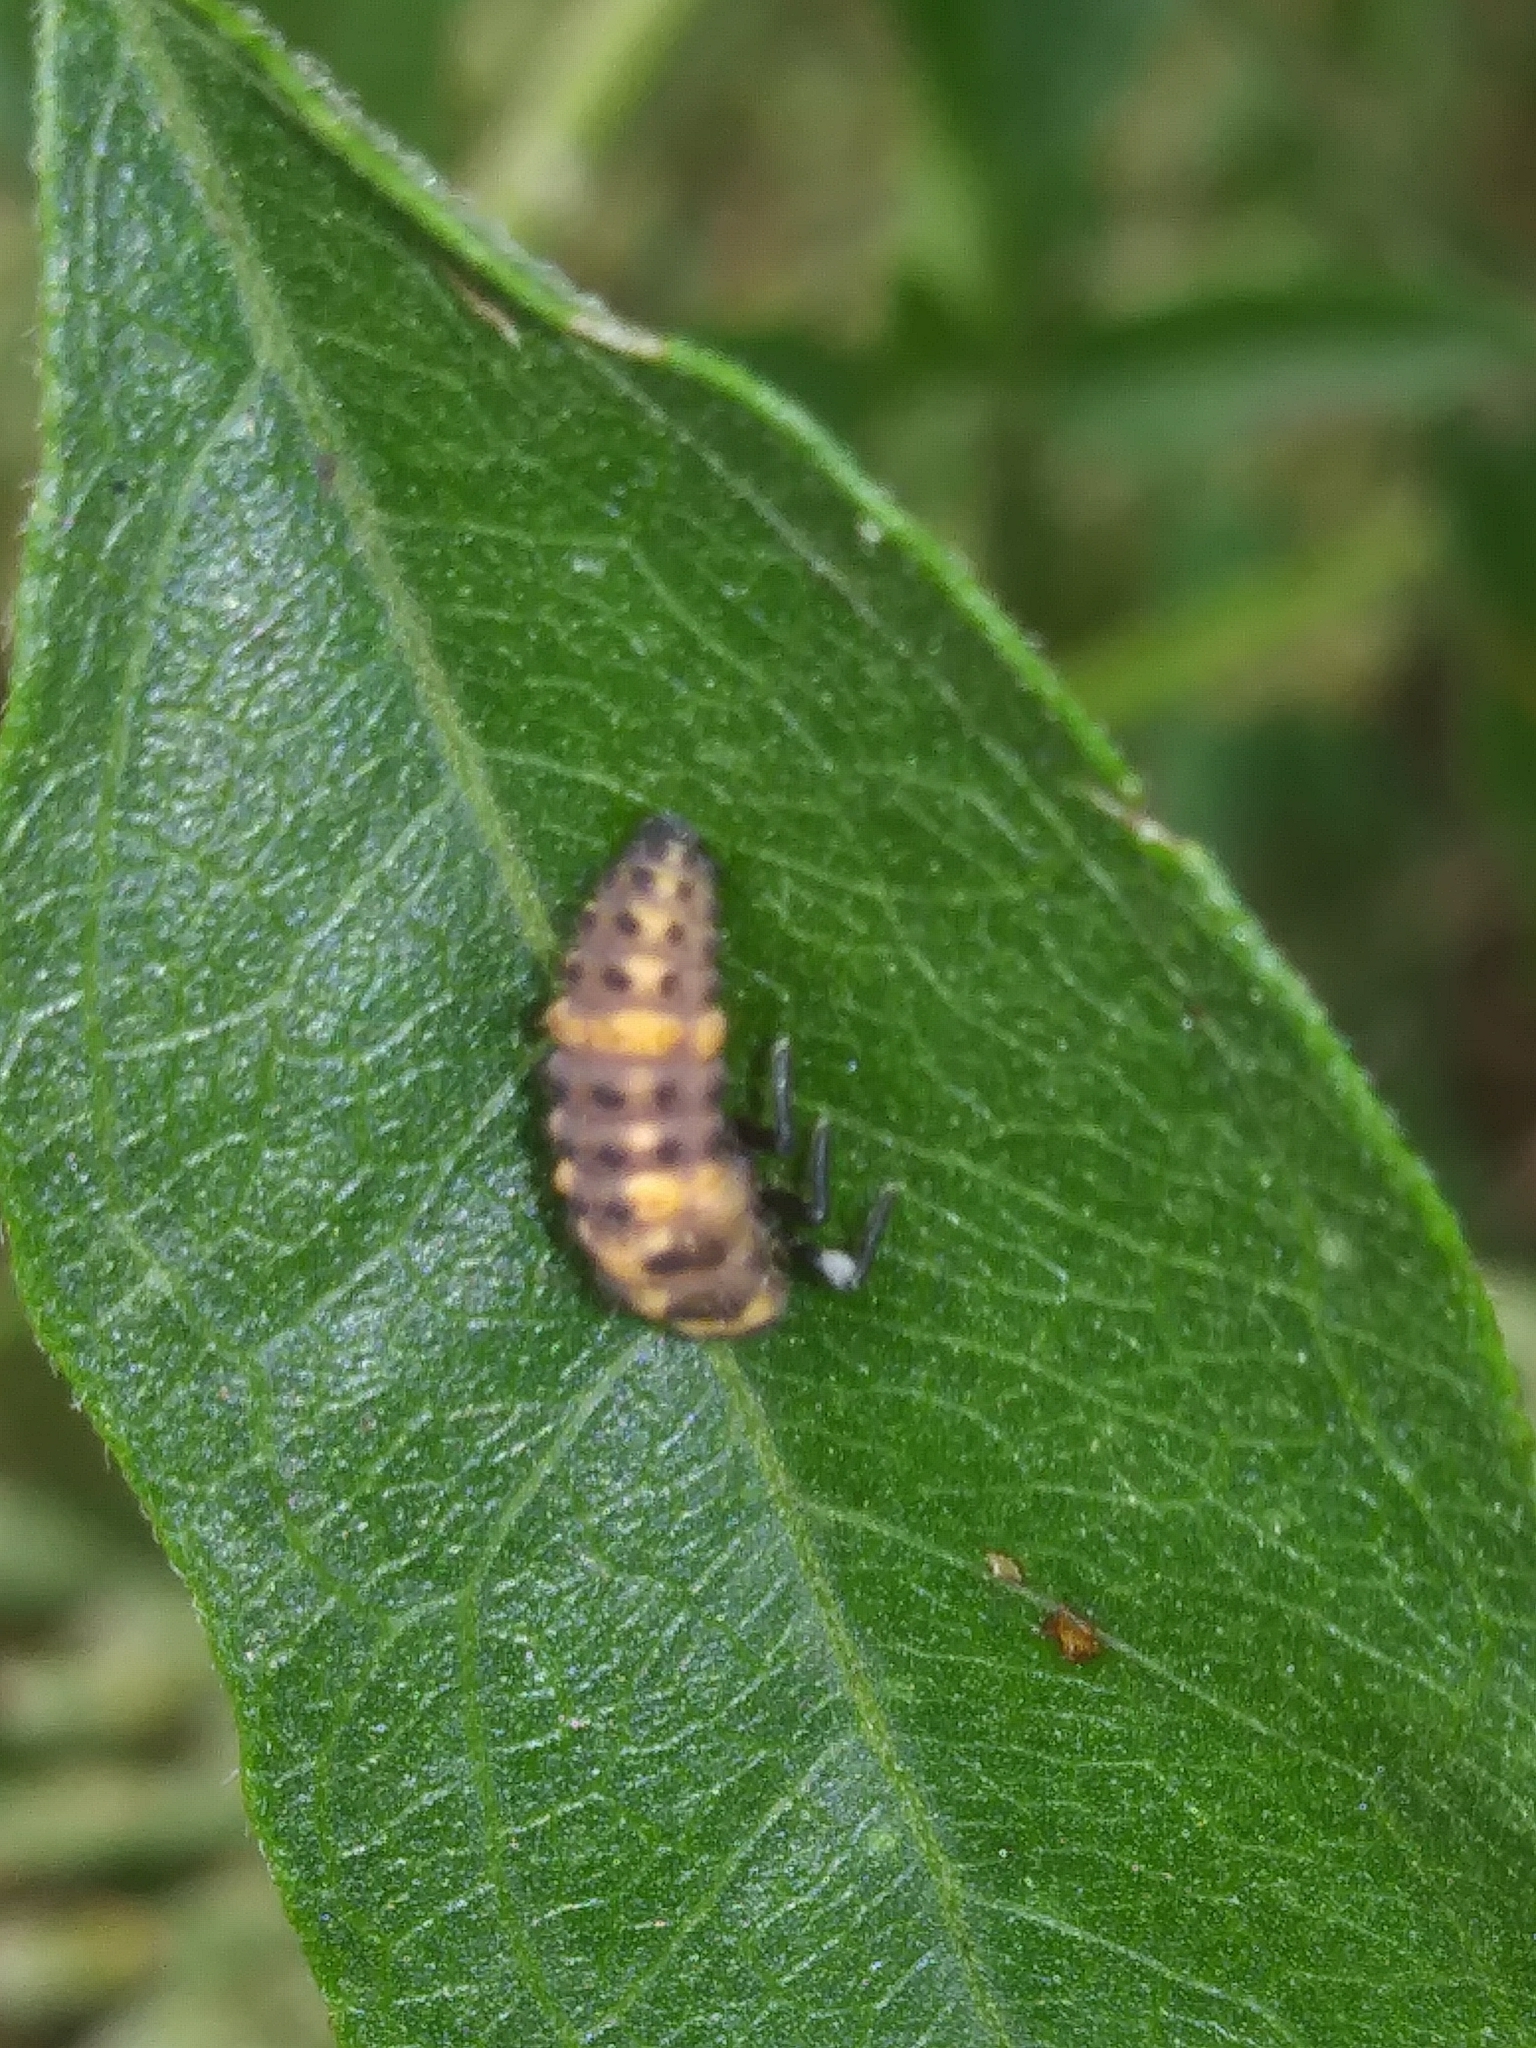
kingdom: Animalia
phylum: Arthropoda
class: Insecta
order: Coleoptera
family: Coccinellidae
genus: Coleomegilla
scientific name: Coleomegilla maculata
